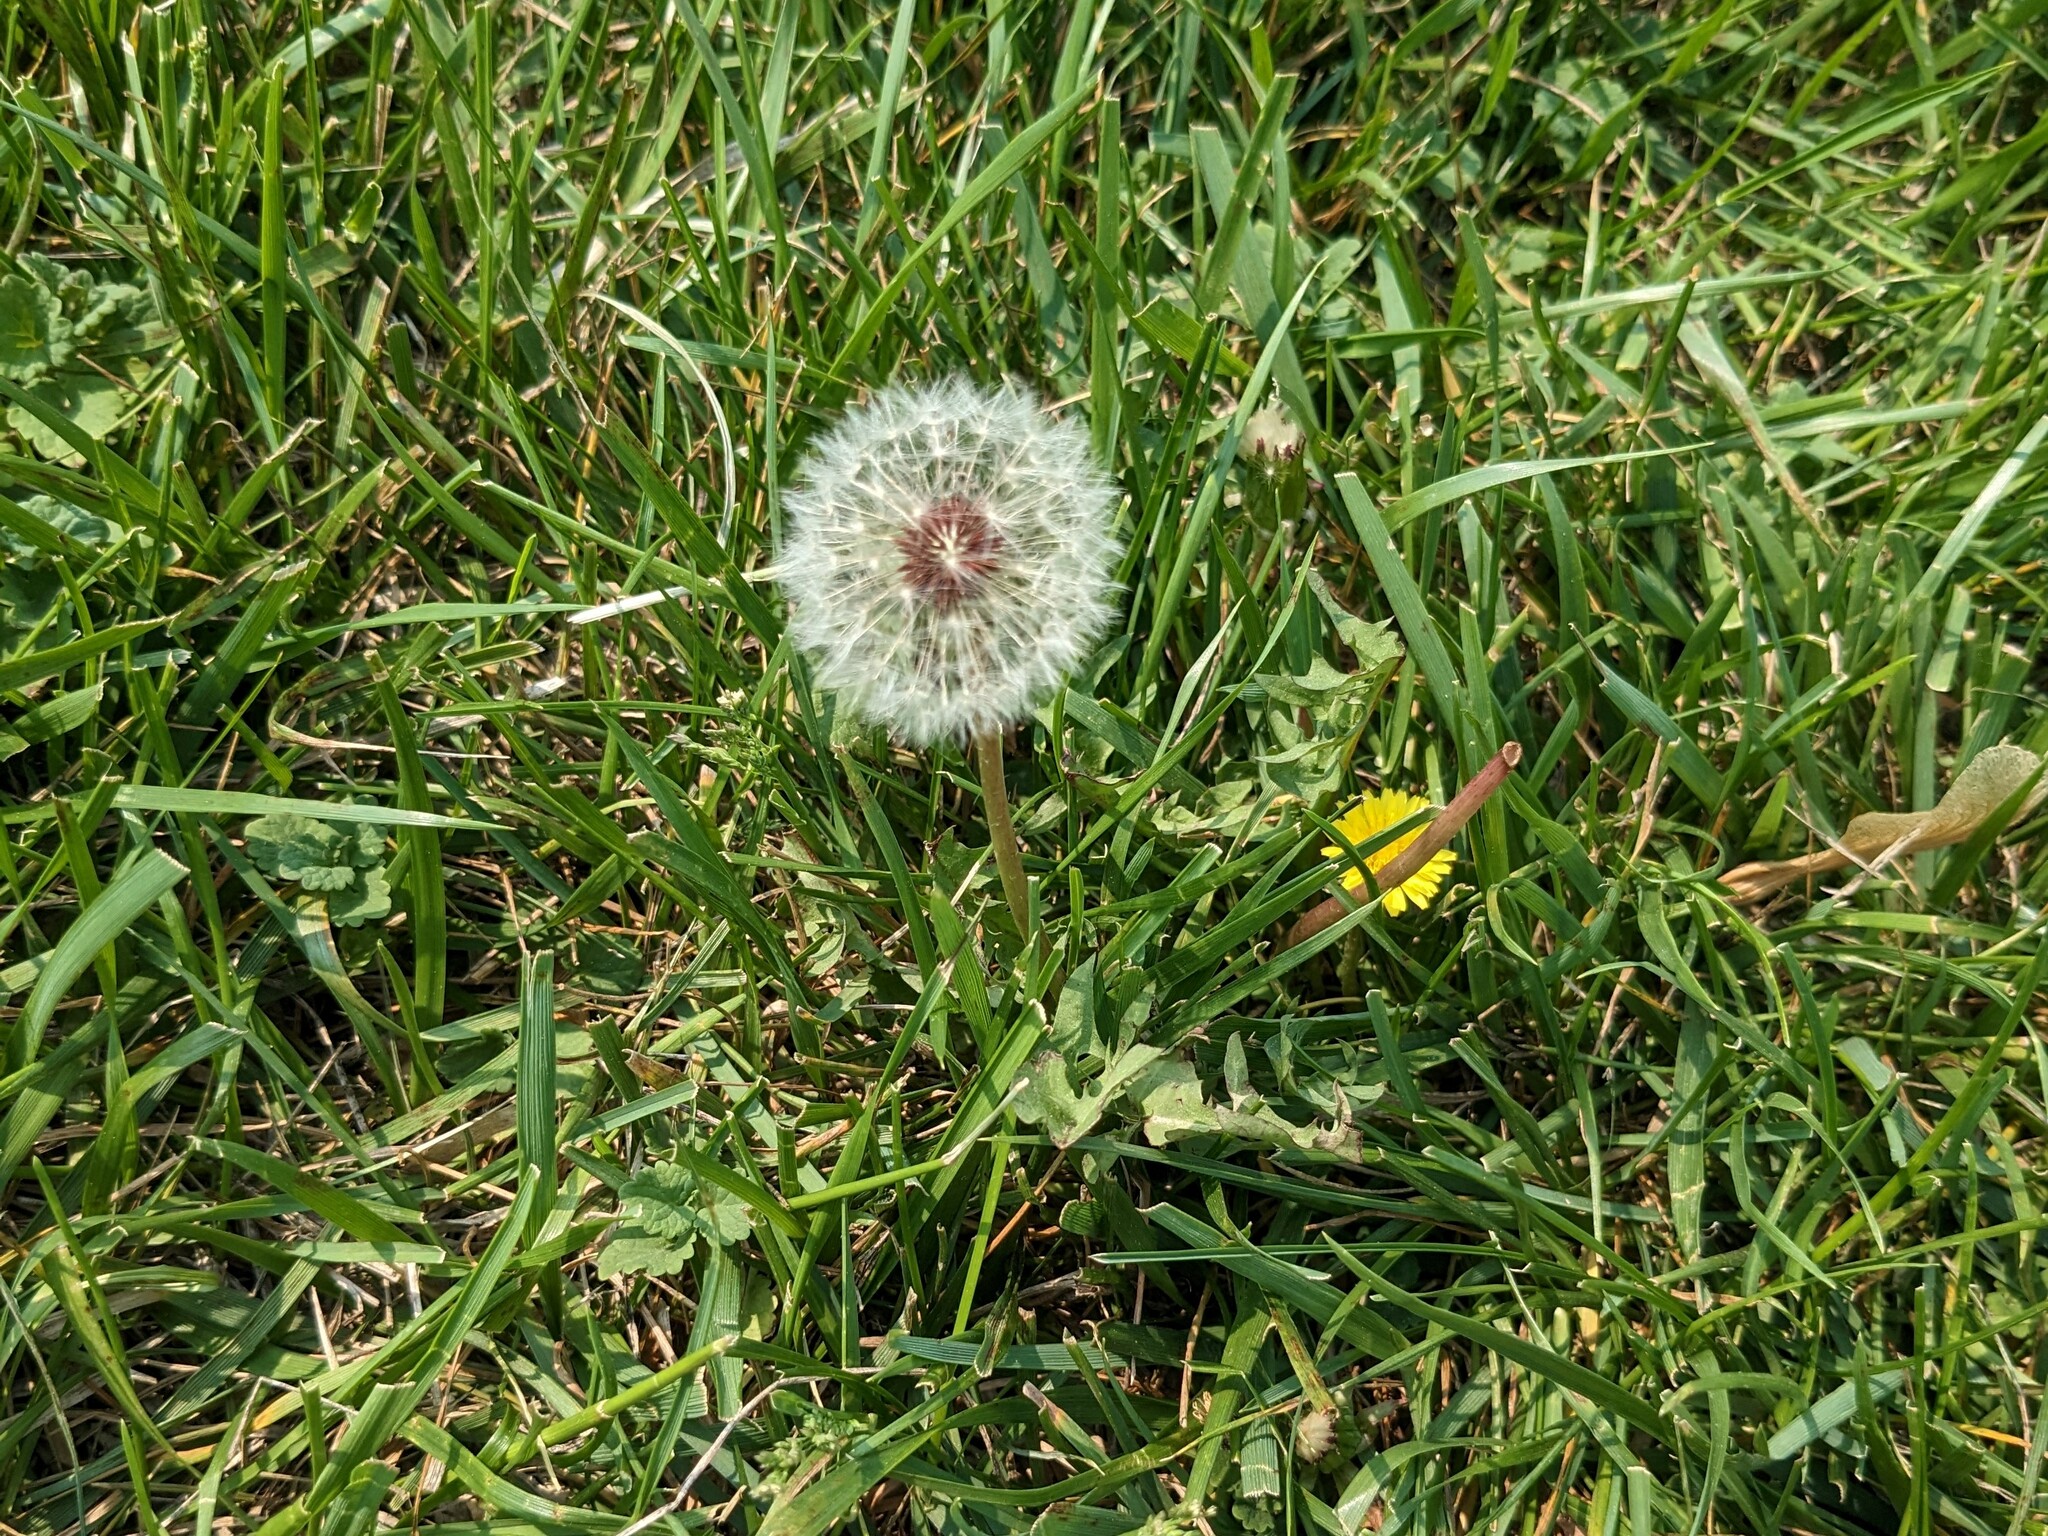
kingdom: Plantae
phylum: Tracheophyta
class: Magnoliopsida
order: Asterales
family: Asteraceae
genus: Taraxacum
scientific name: Taraxacum erythrospermum
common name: Rock dandelion
